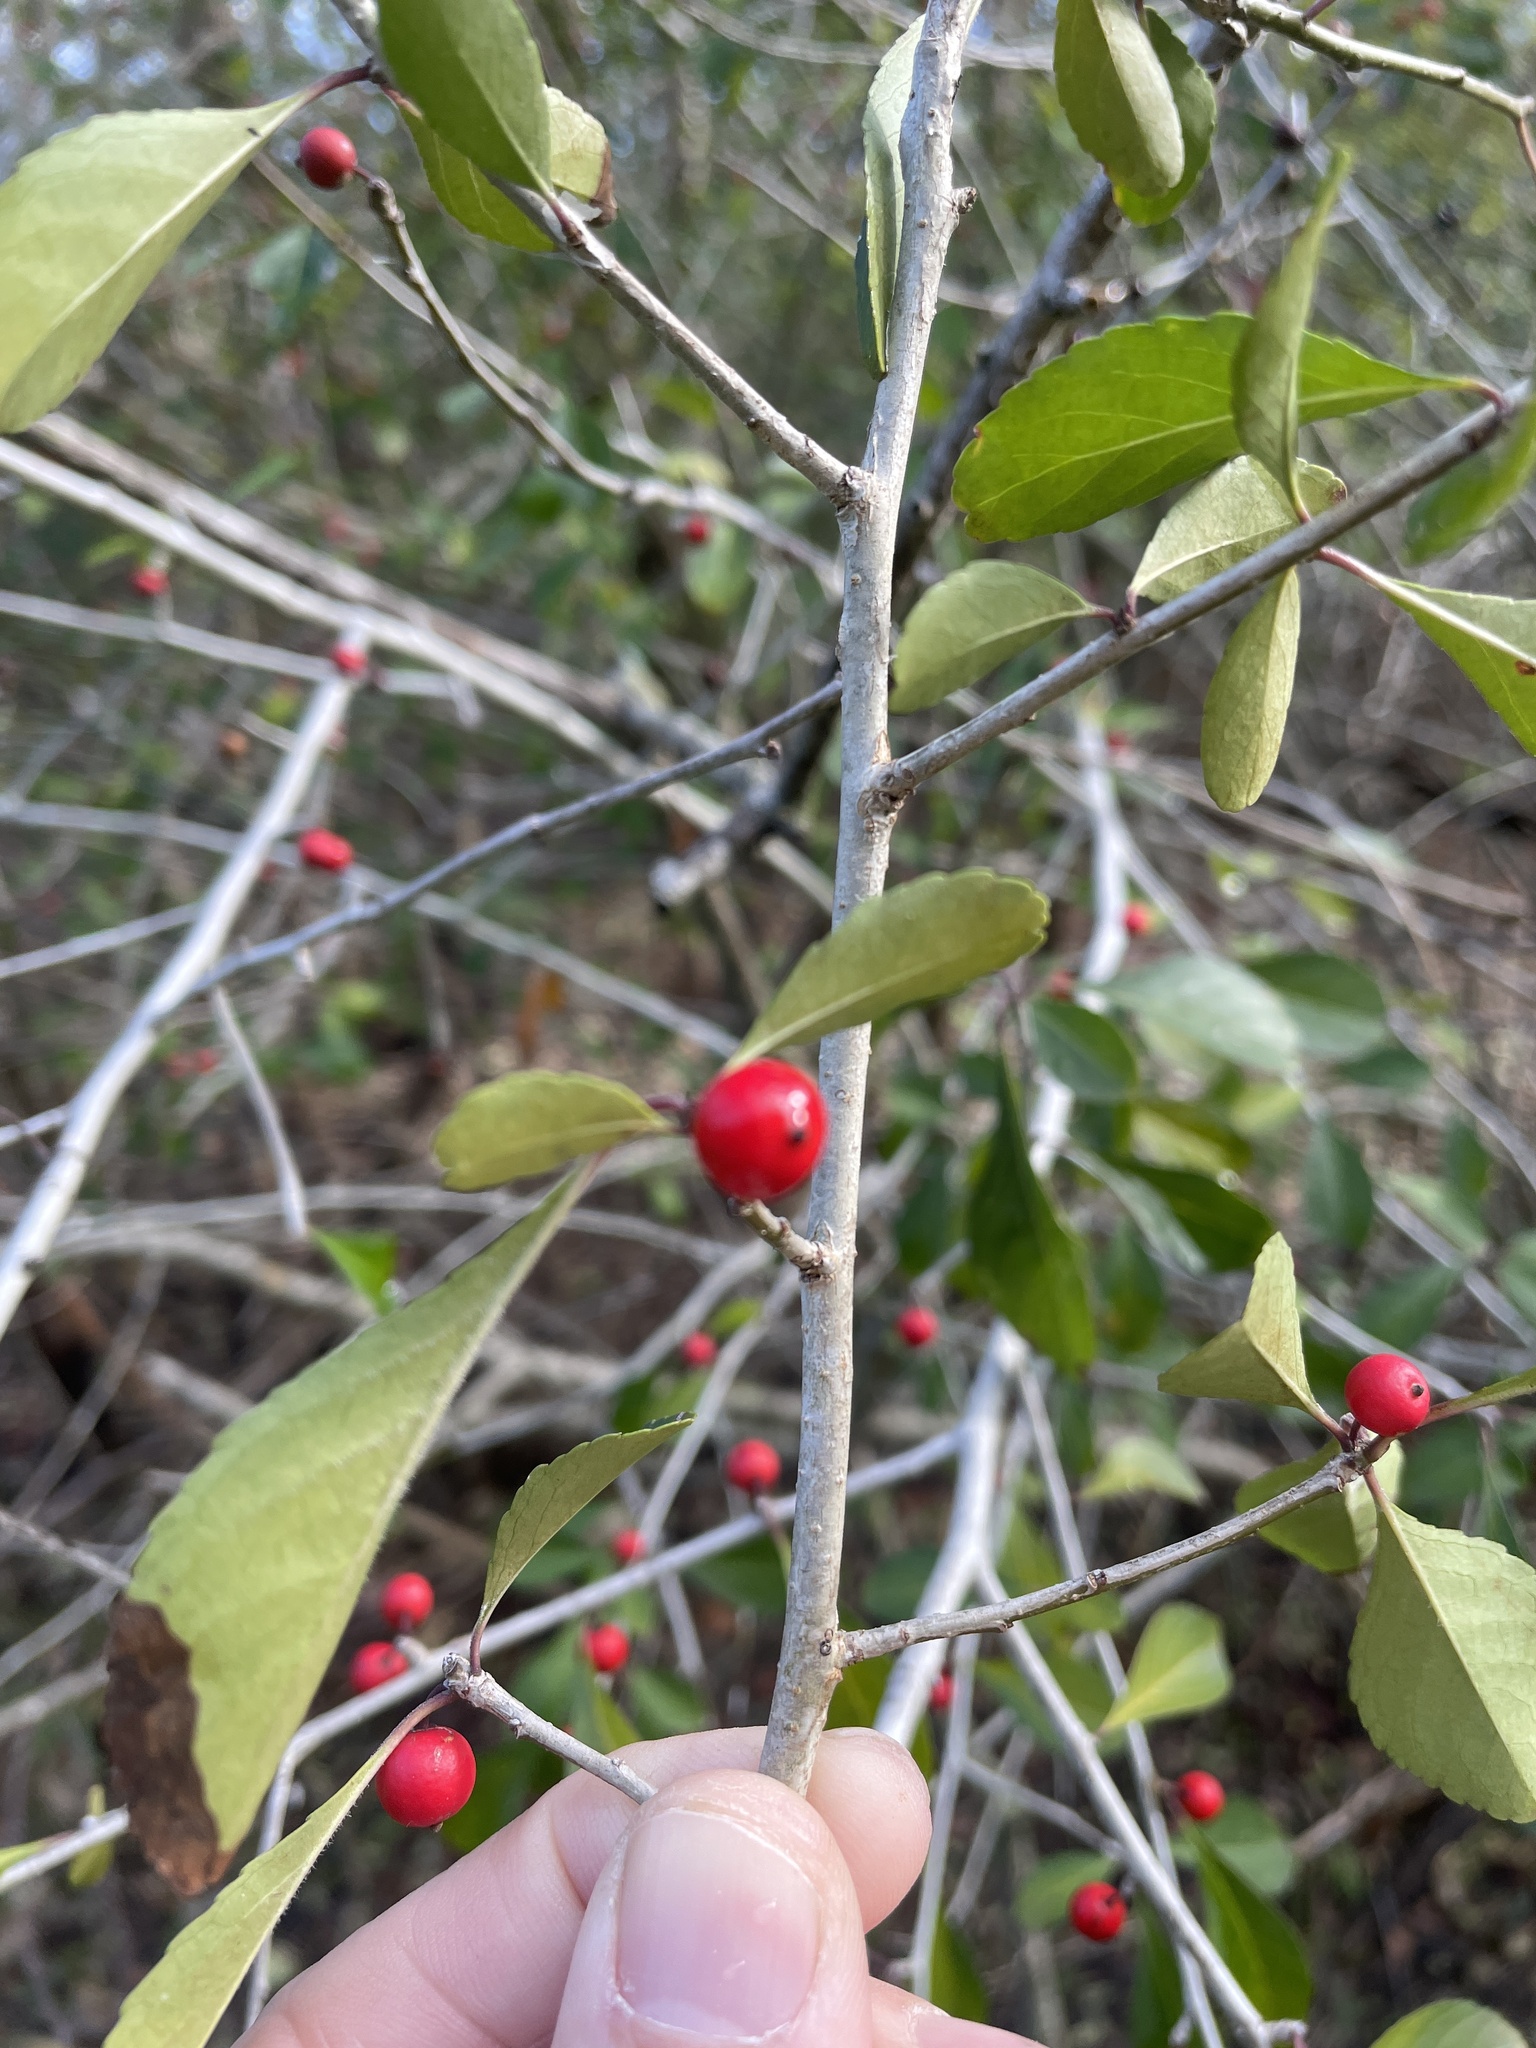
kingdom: Plantae
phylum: Tracheophyta
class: Magnoliopsida
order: Aquifoliales
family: Aquifoliaceae
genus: Ilex
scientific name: Ilex decidua
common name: Possum-haw
